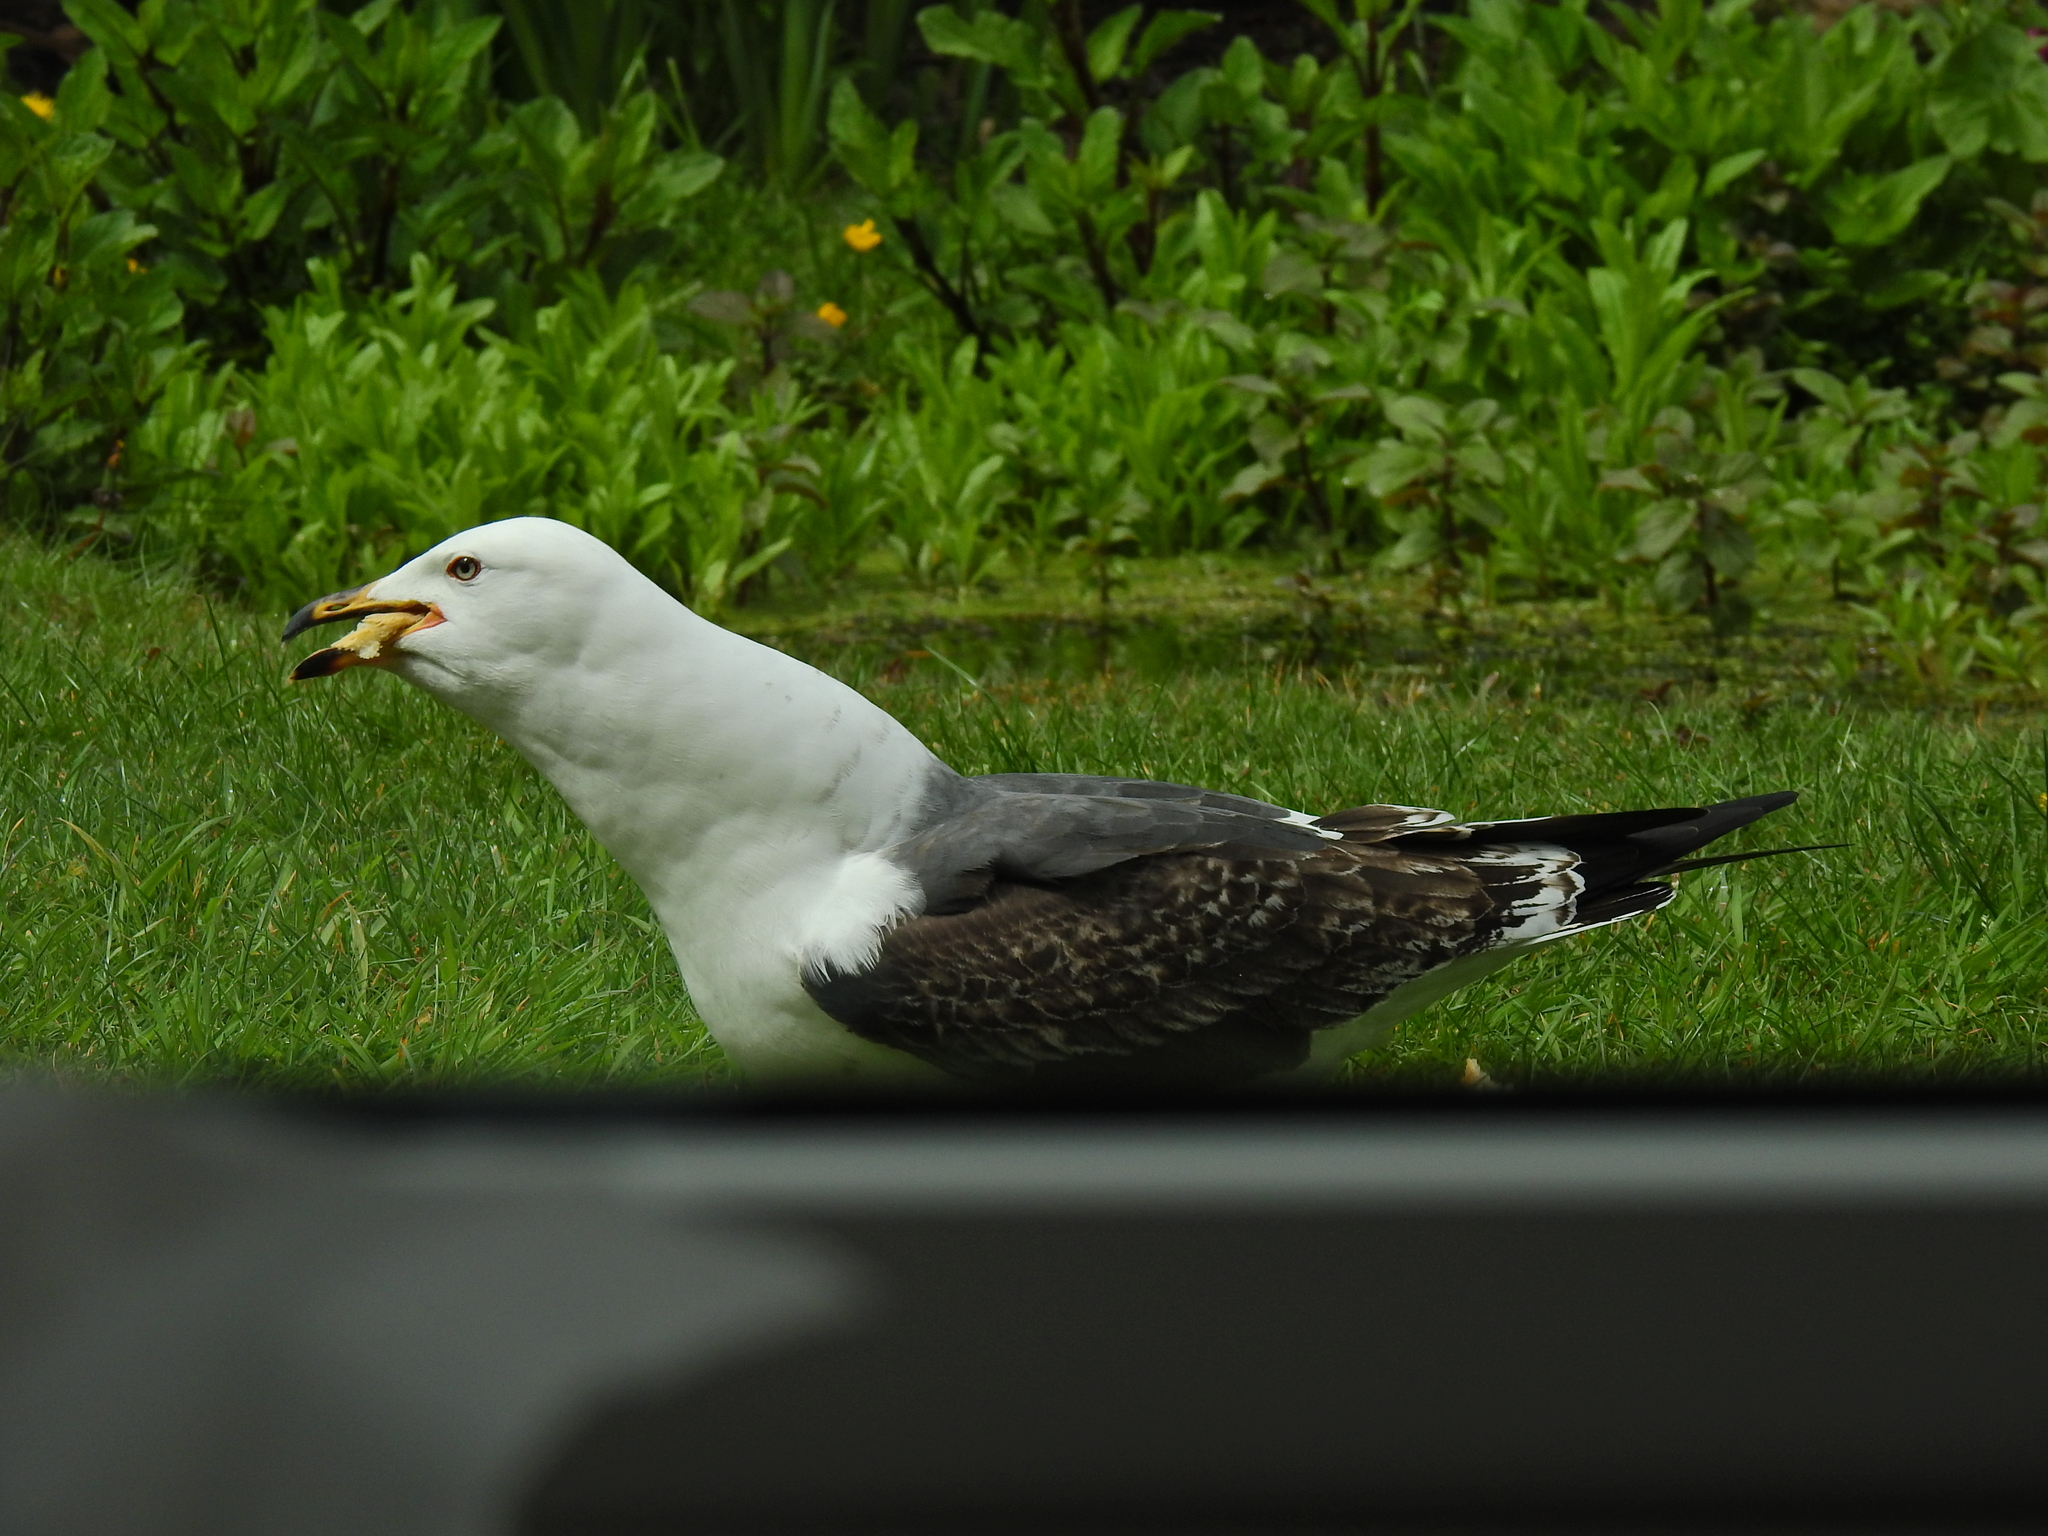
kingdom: Animalia
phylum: Chordata
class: Aves
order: Charadriiformes
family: Laridae
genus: Larus
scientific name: Larus fuscus
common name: Lesser black-backed gull
